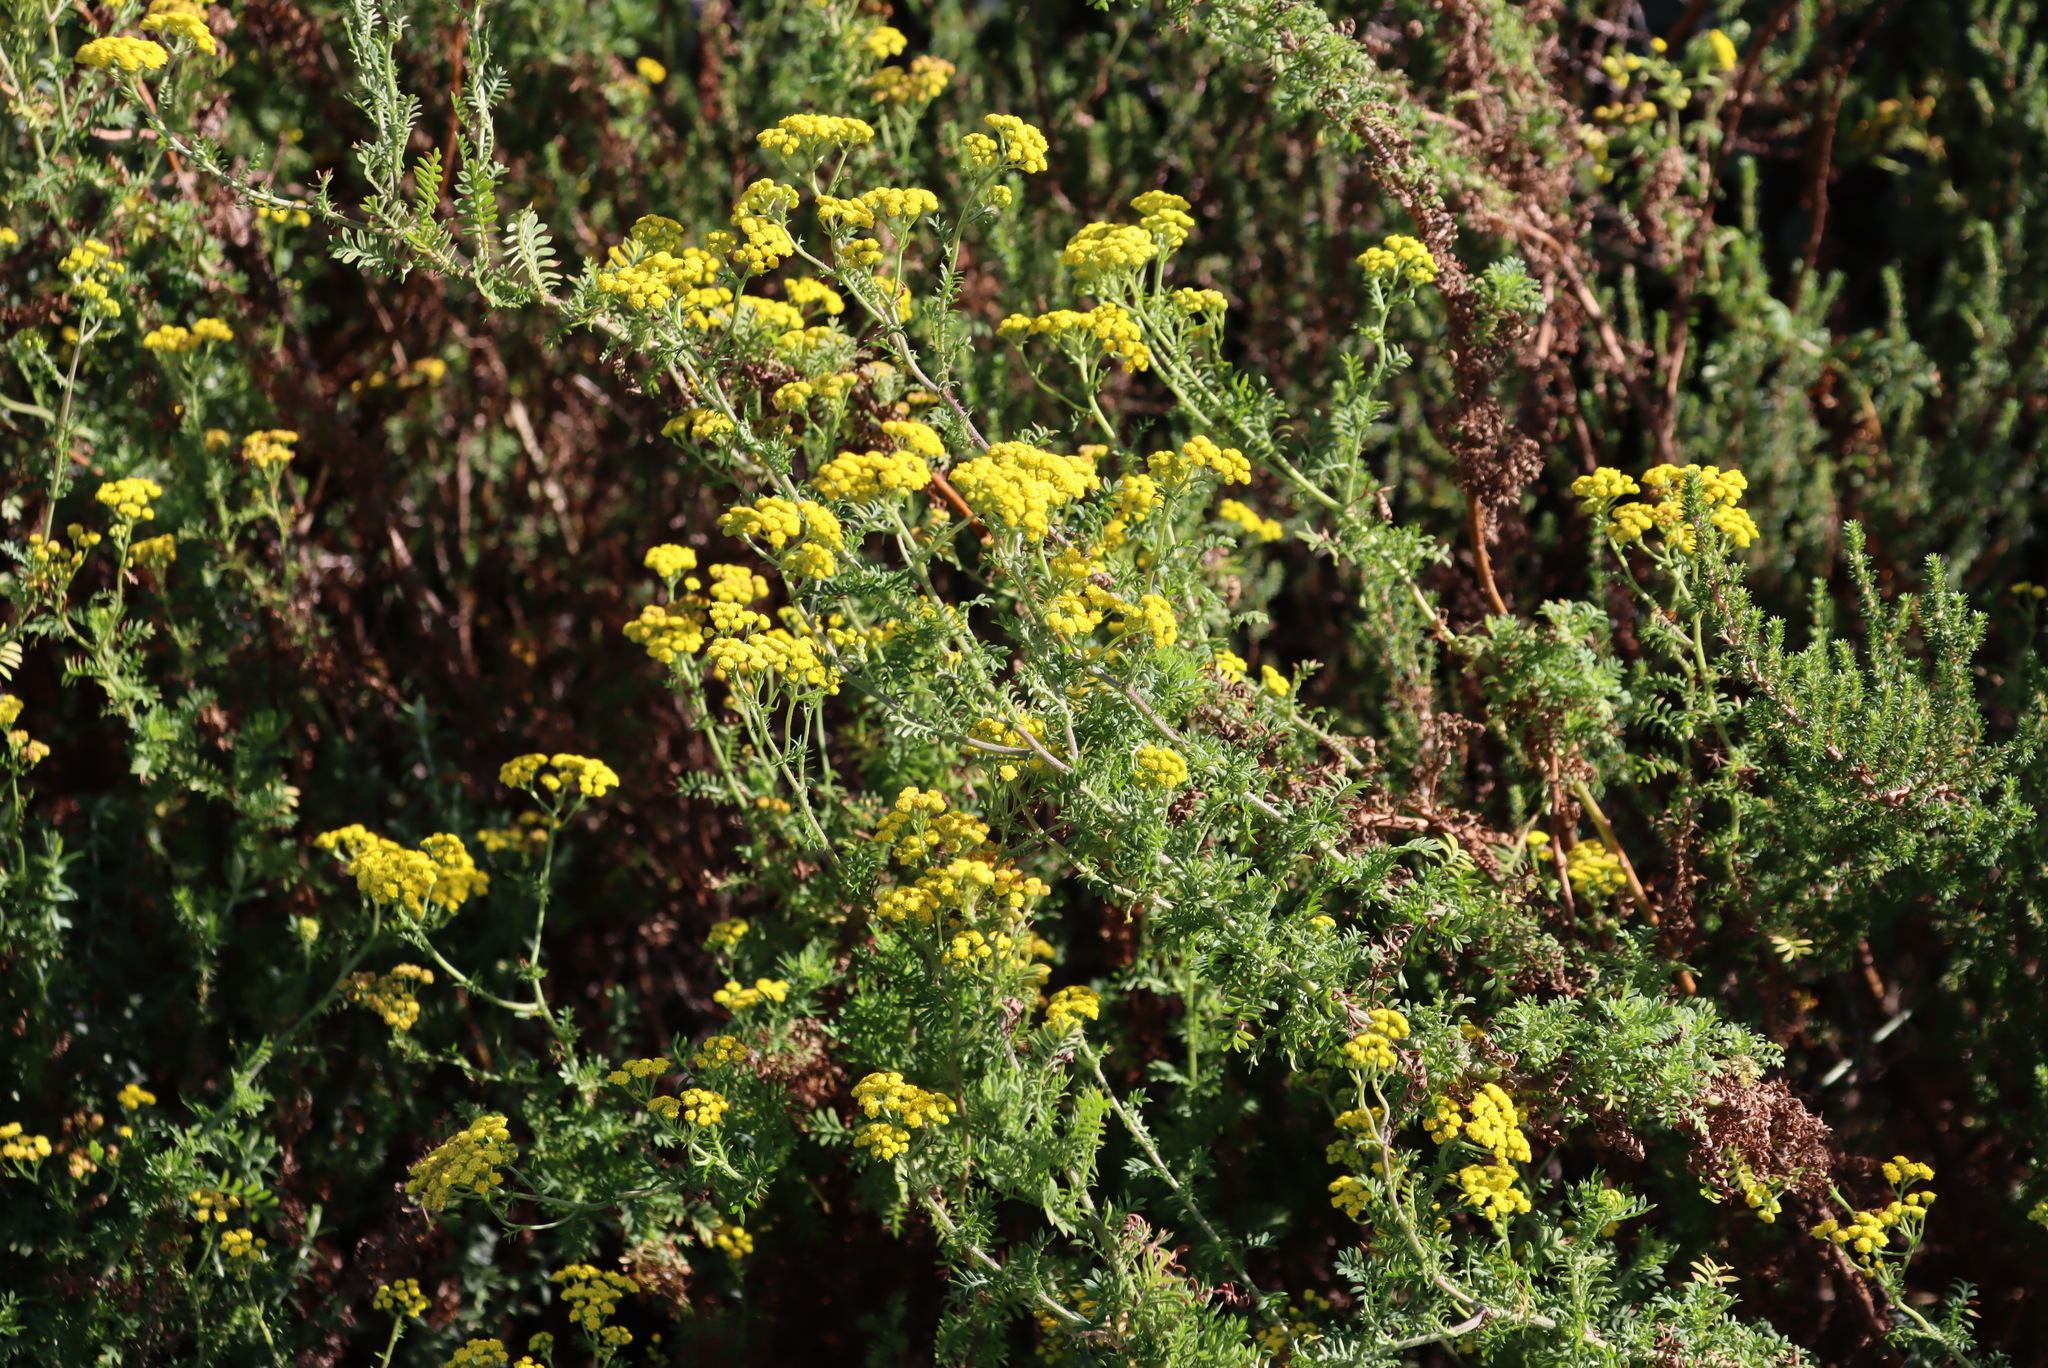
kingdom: Plantae
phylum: Tracheophyta
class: Magnoliopsida
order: Asterales
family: Asteraceae
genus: Hippia
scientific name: Hippia frutescens
